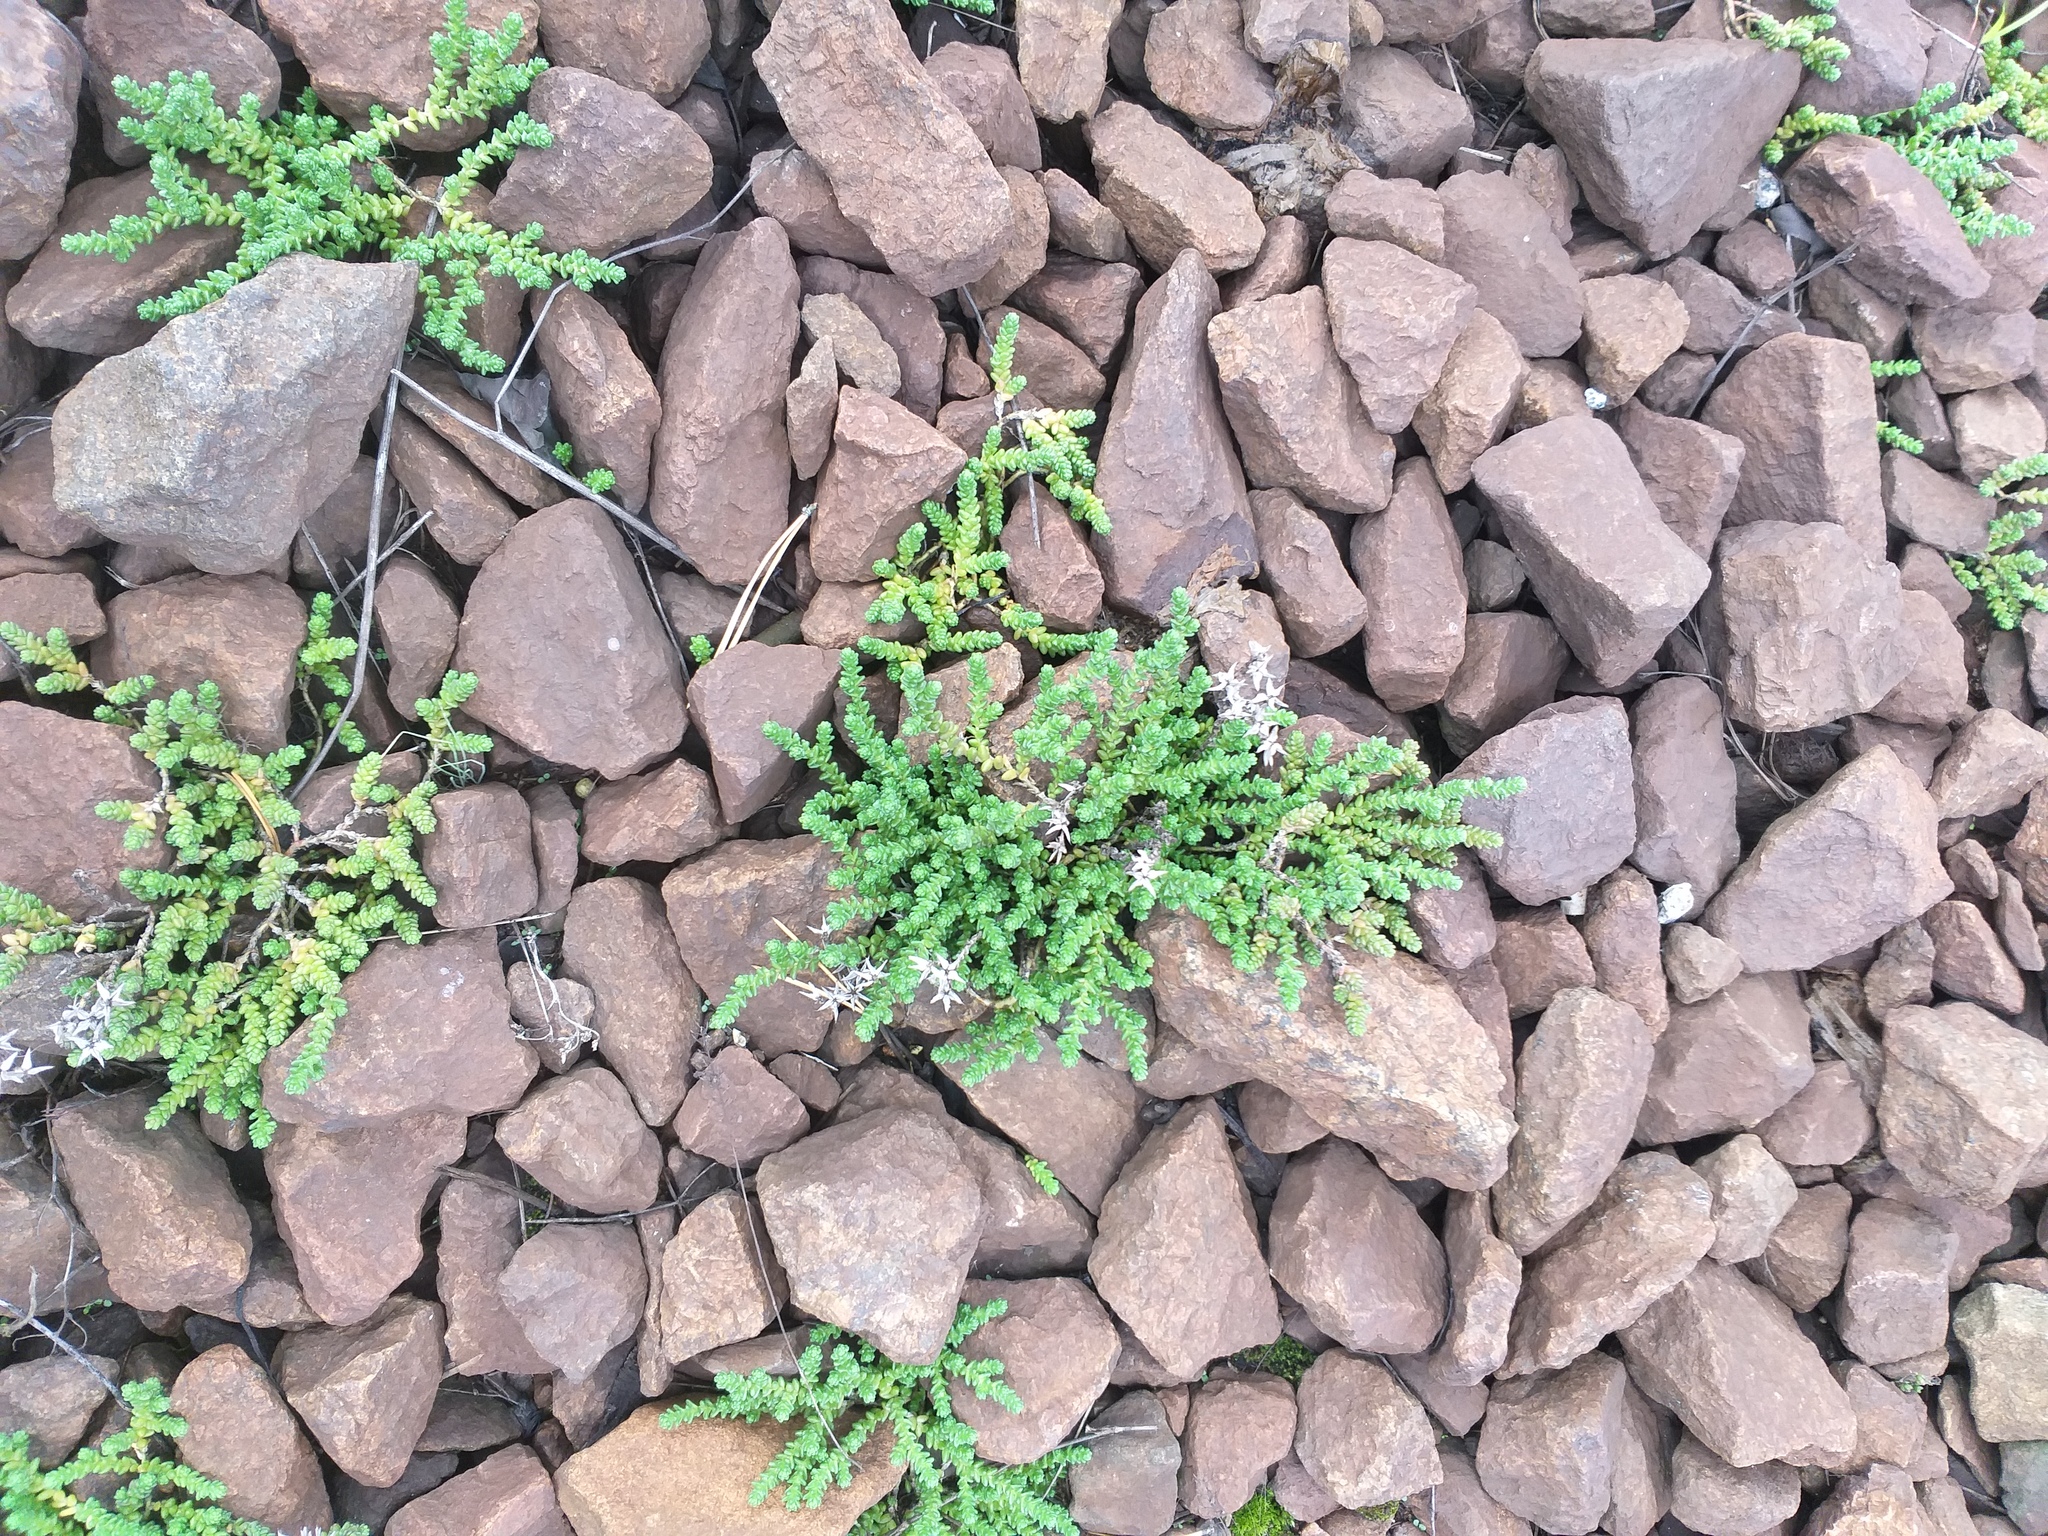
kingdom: Plantae
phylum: Tracheophyta
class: Magnoliopsida
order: Saxifragales
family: Crassulaceae
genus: Sedum
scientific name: Sedum acre
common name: Biting stonecrop
